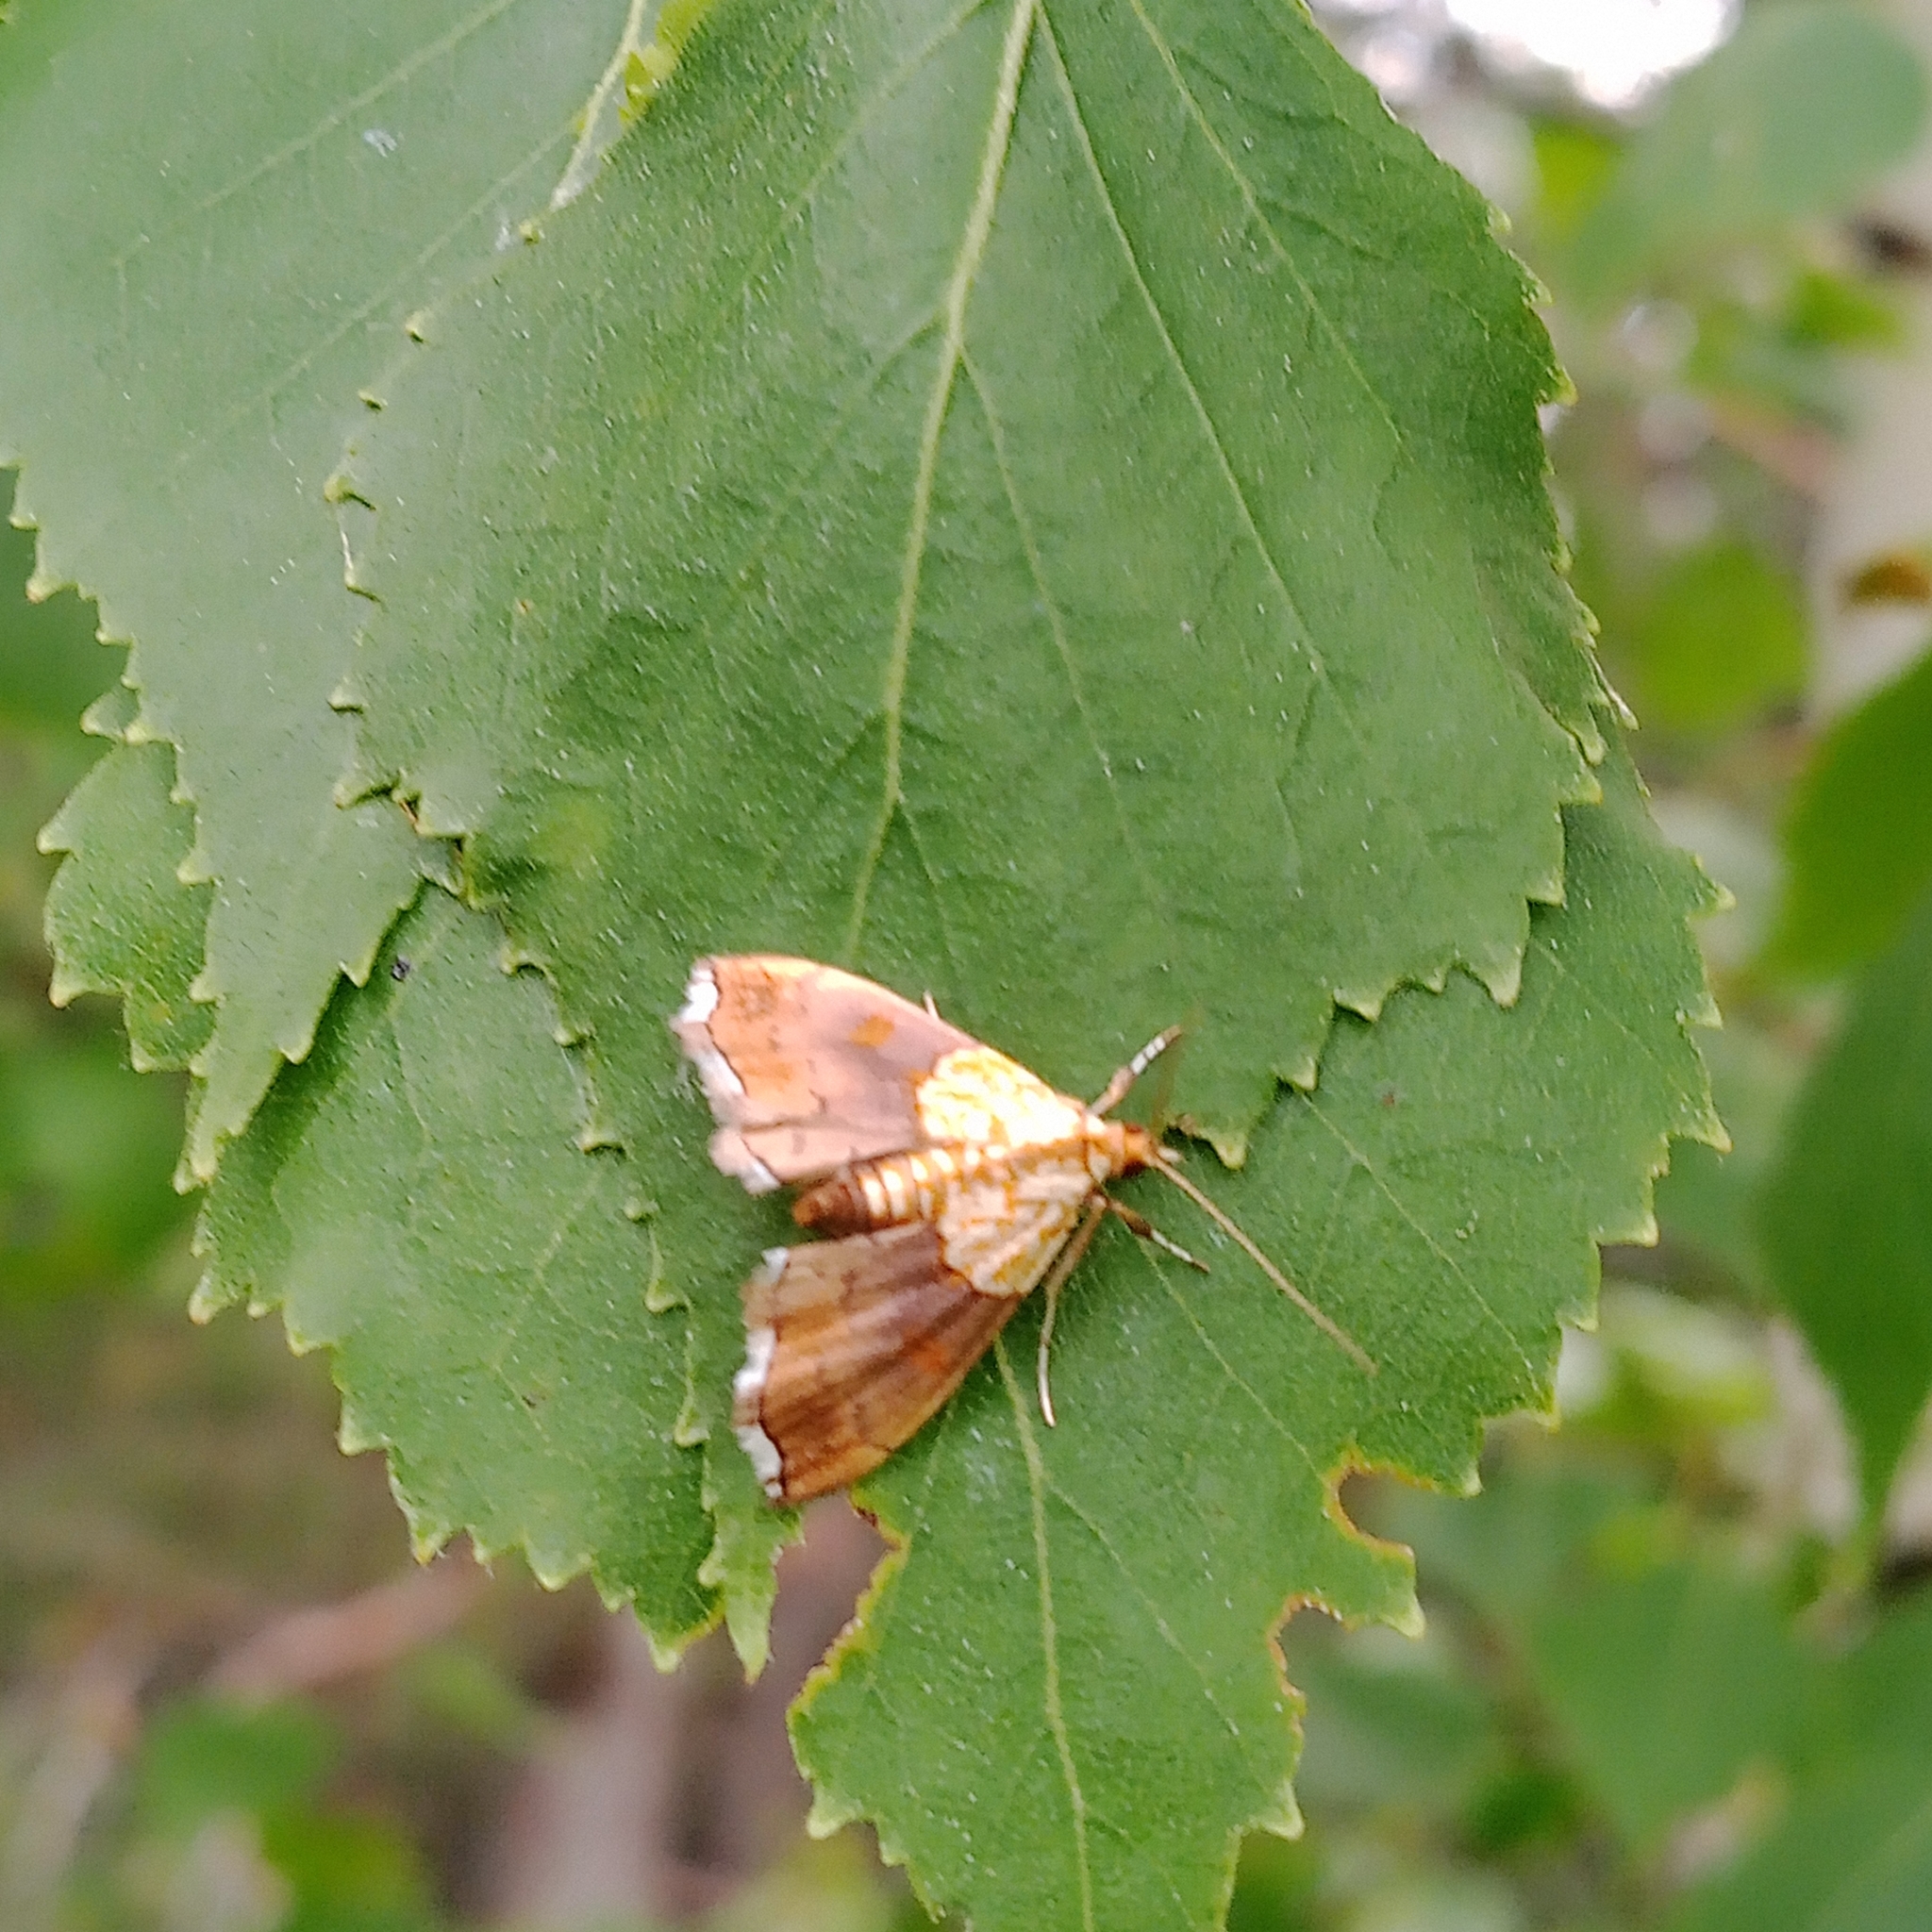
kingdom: Animalia
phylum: Arthropoda
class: Insecta
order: Lepidoptera
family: Crambidae
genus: Agrotera
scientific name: Agrotera nemoralis
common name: Beautiful pearl
